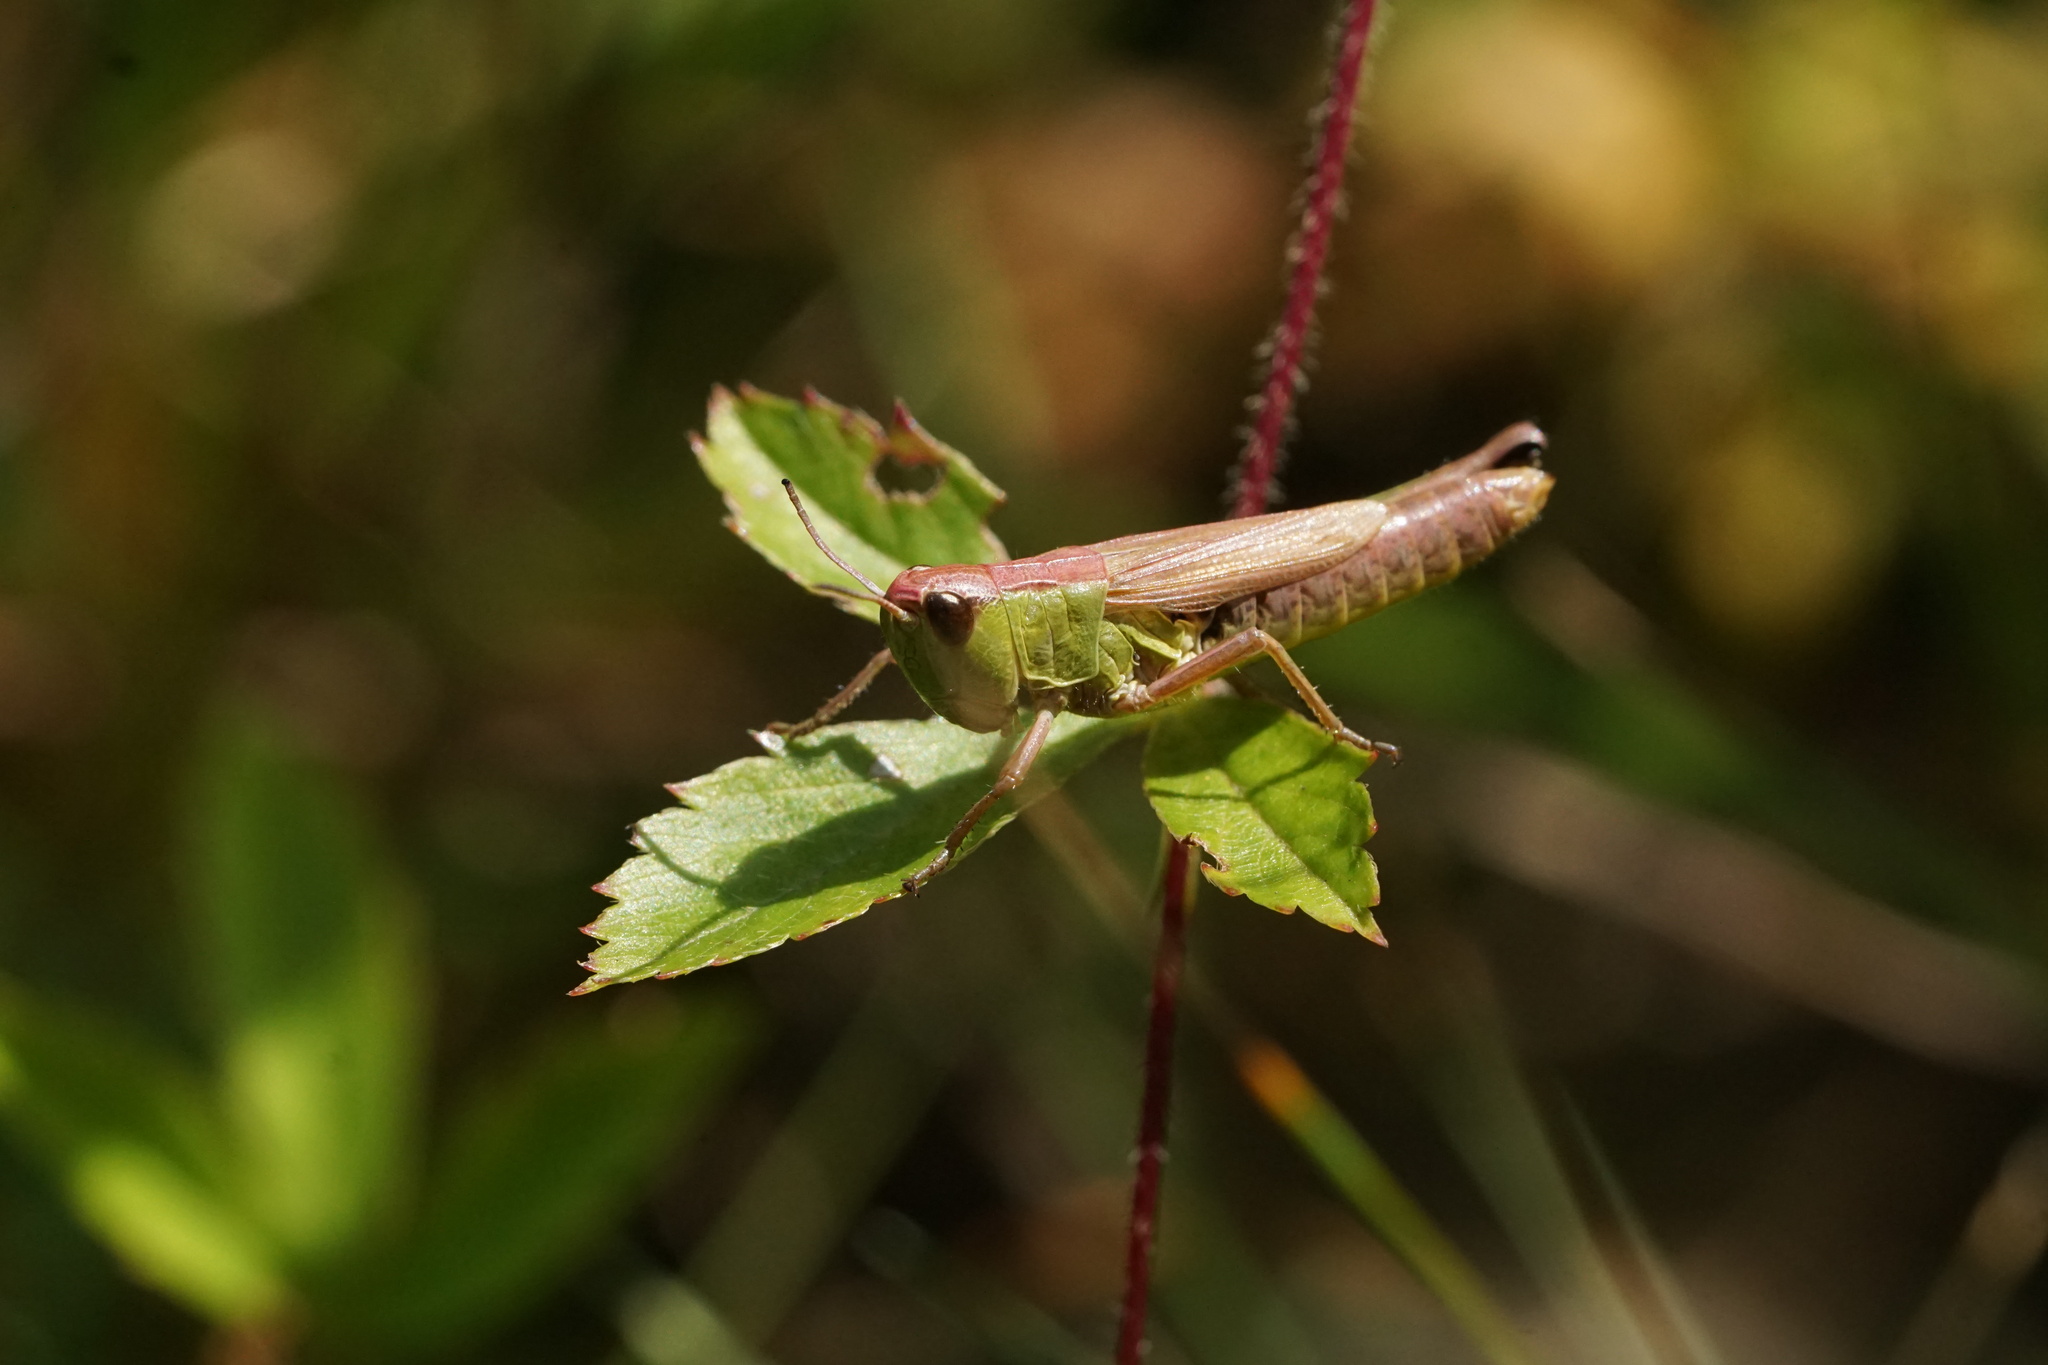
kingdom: Animalia
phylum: Arthropoda
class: Insecta
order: Orthoptera
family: Acrididae
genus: Pseudochorthippus
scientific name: Pseudochorthippus curtipennis
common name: Marsh meadow grasshopper
